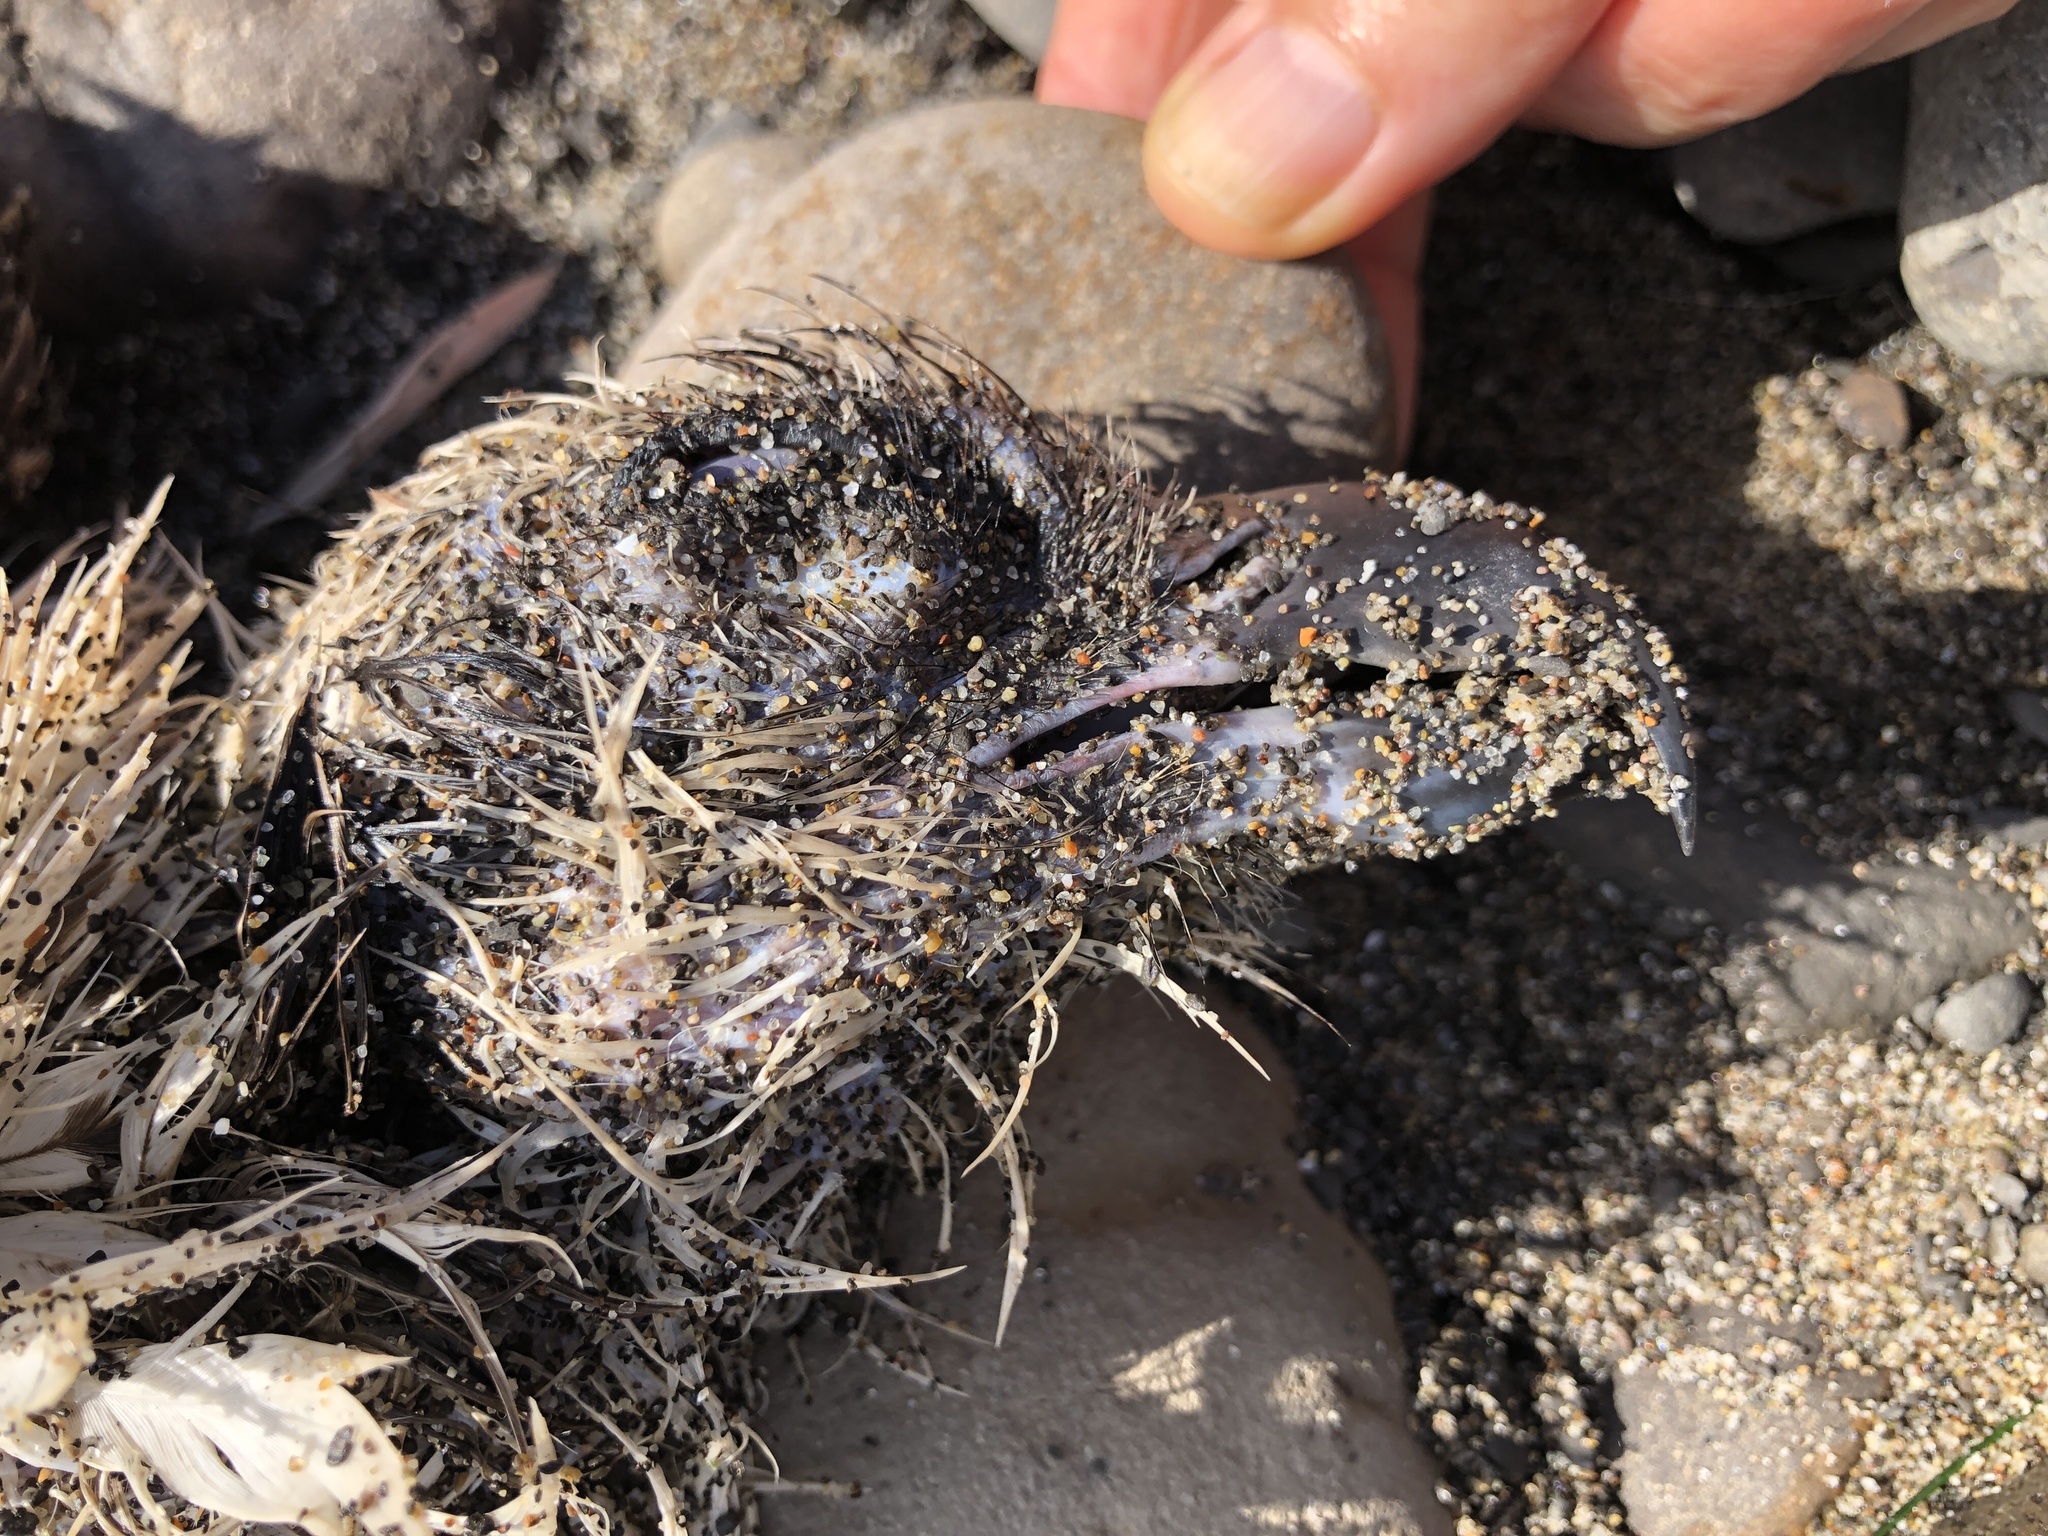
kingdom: Animalia
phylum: Chordata
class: Aves
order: Accipitriformes
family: Pandionidae
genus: Pandion
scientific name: Pandion haliaetus
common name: Osprey
